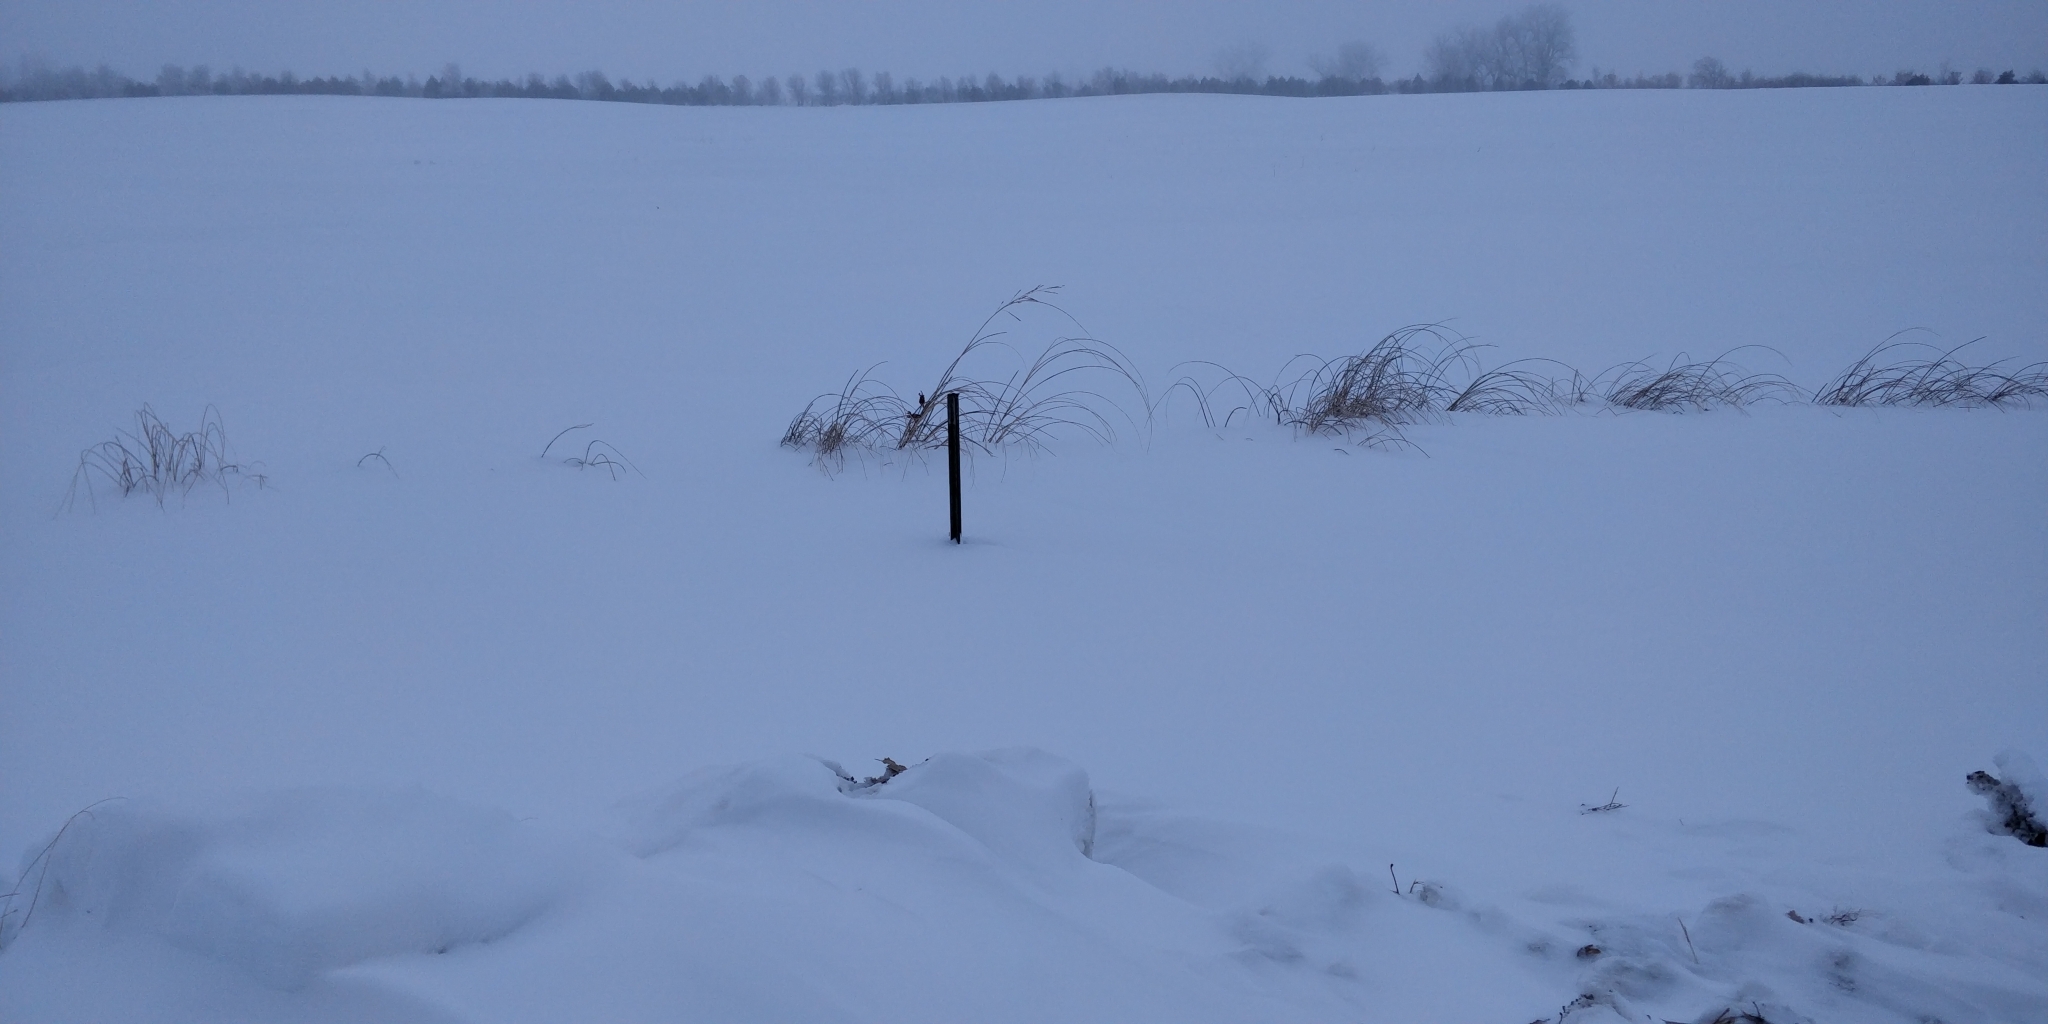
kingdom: Plantae
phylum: Tracheophyta
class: Liliopsida
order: Poales
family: Poaceae
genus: Sporobolus
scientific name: Sporobolus michauxianus
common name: Freshwater cordgrass
